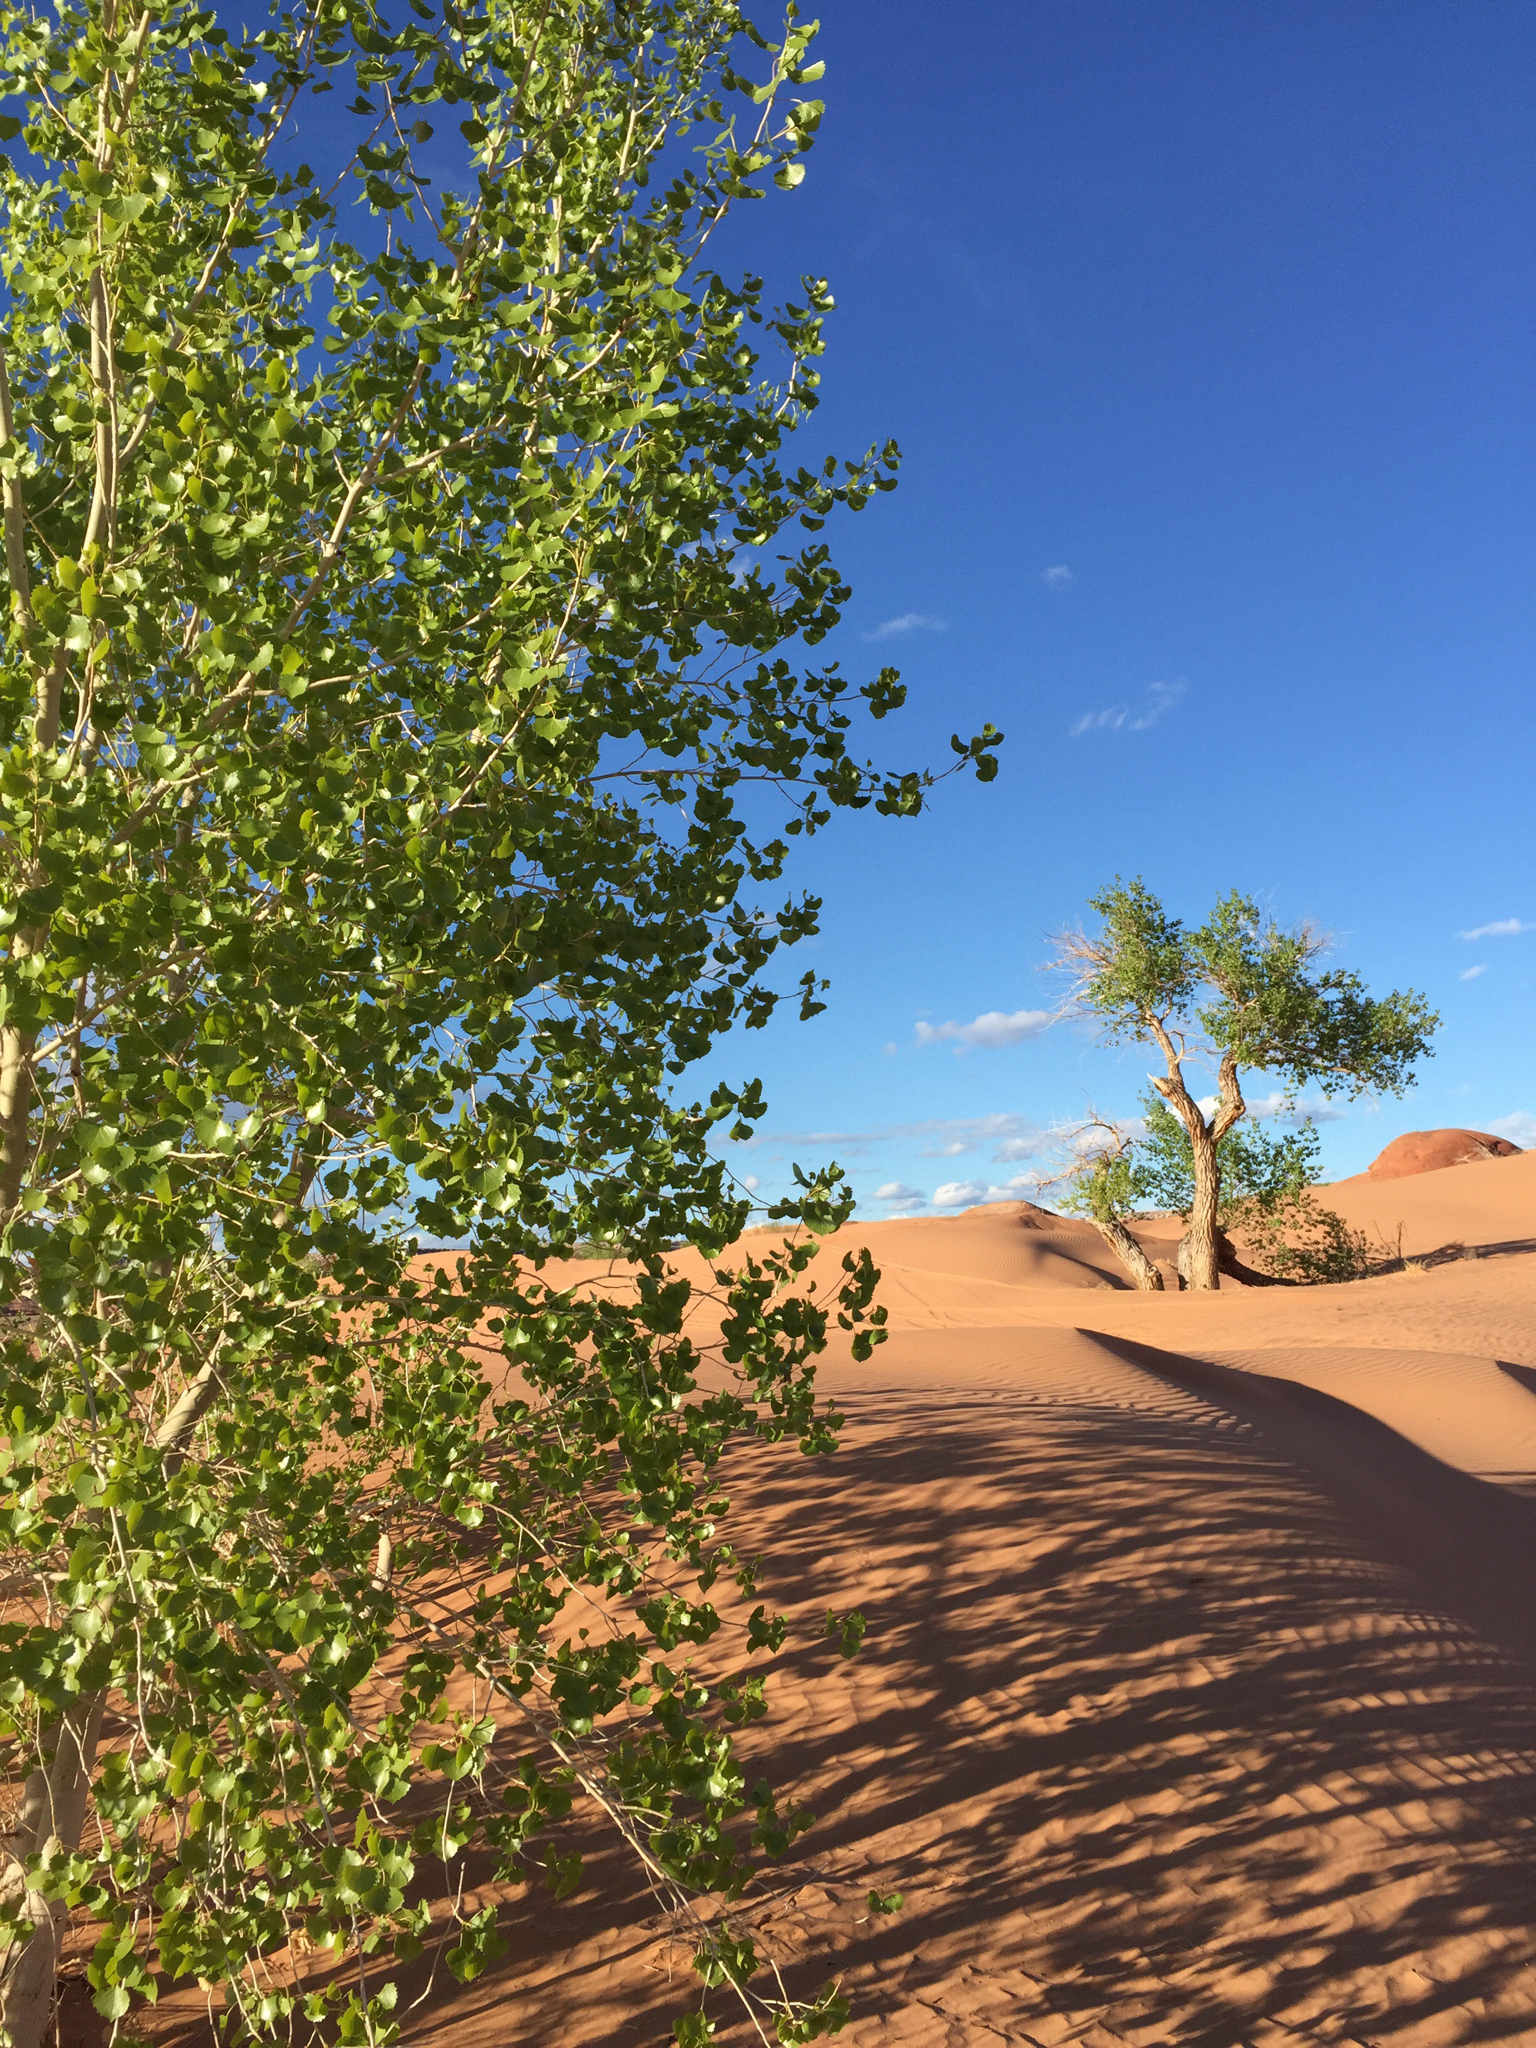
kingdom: Plantae
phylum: Tracheophyta
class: Magnoliopsida
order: Malpighiales
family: Salicaceae
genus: Populus
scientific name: Populus fremontii
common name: Fremont's cottonwood
